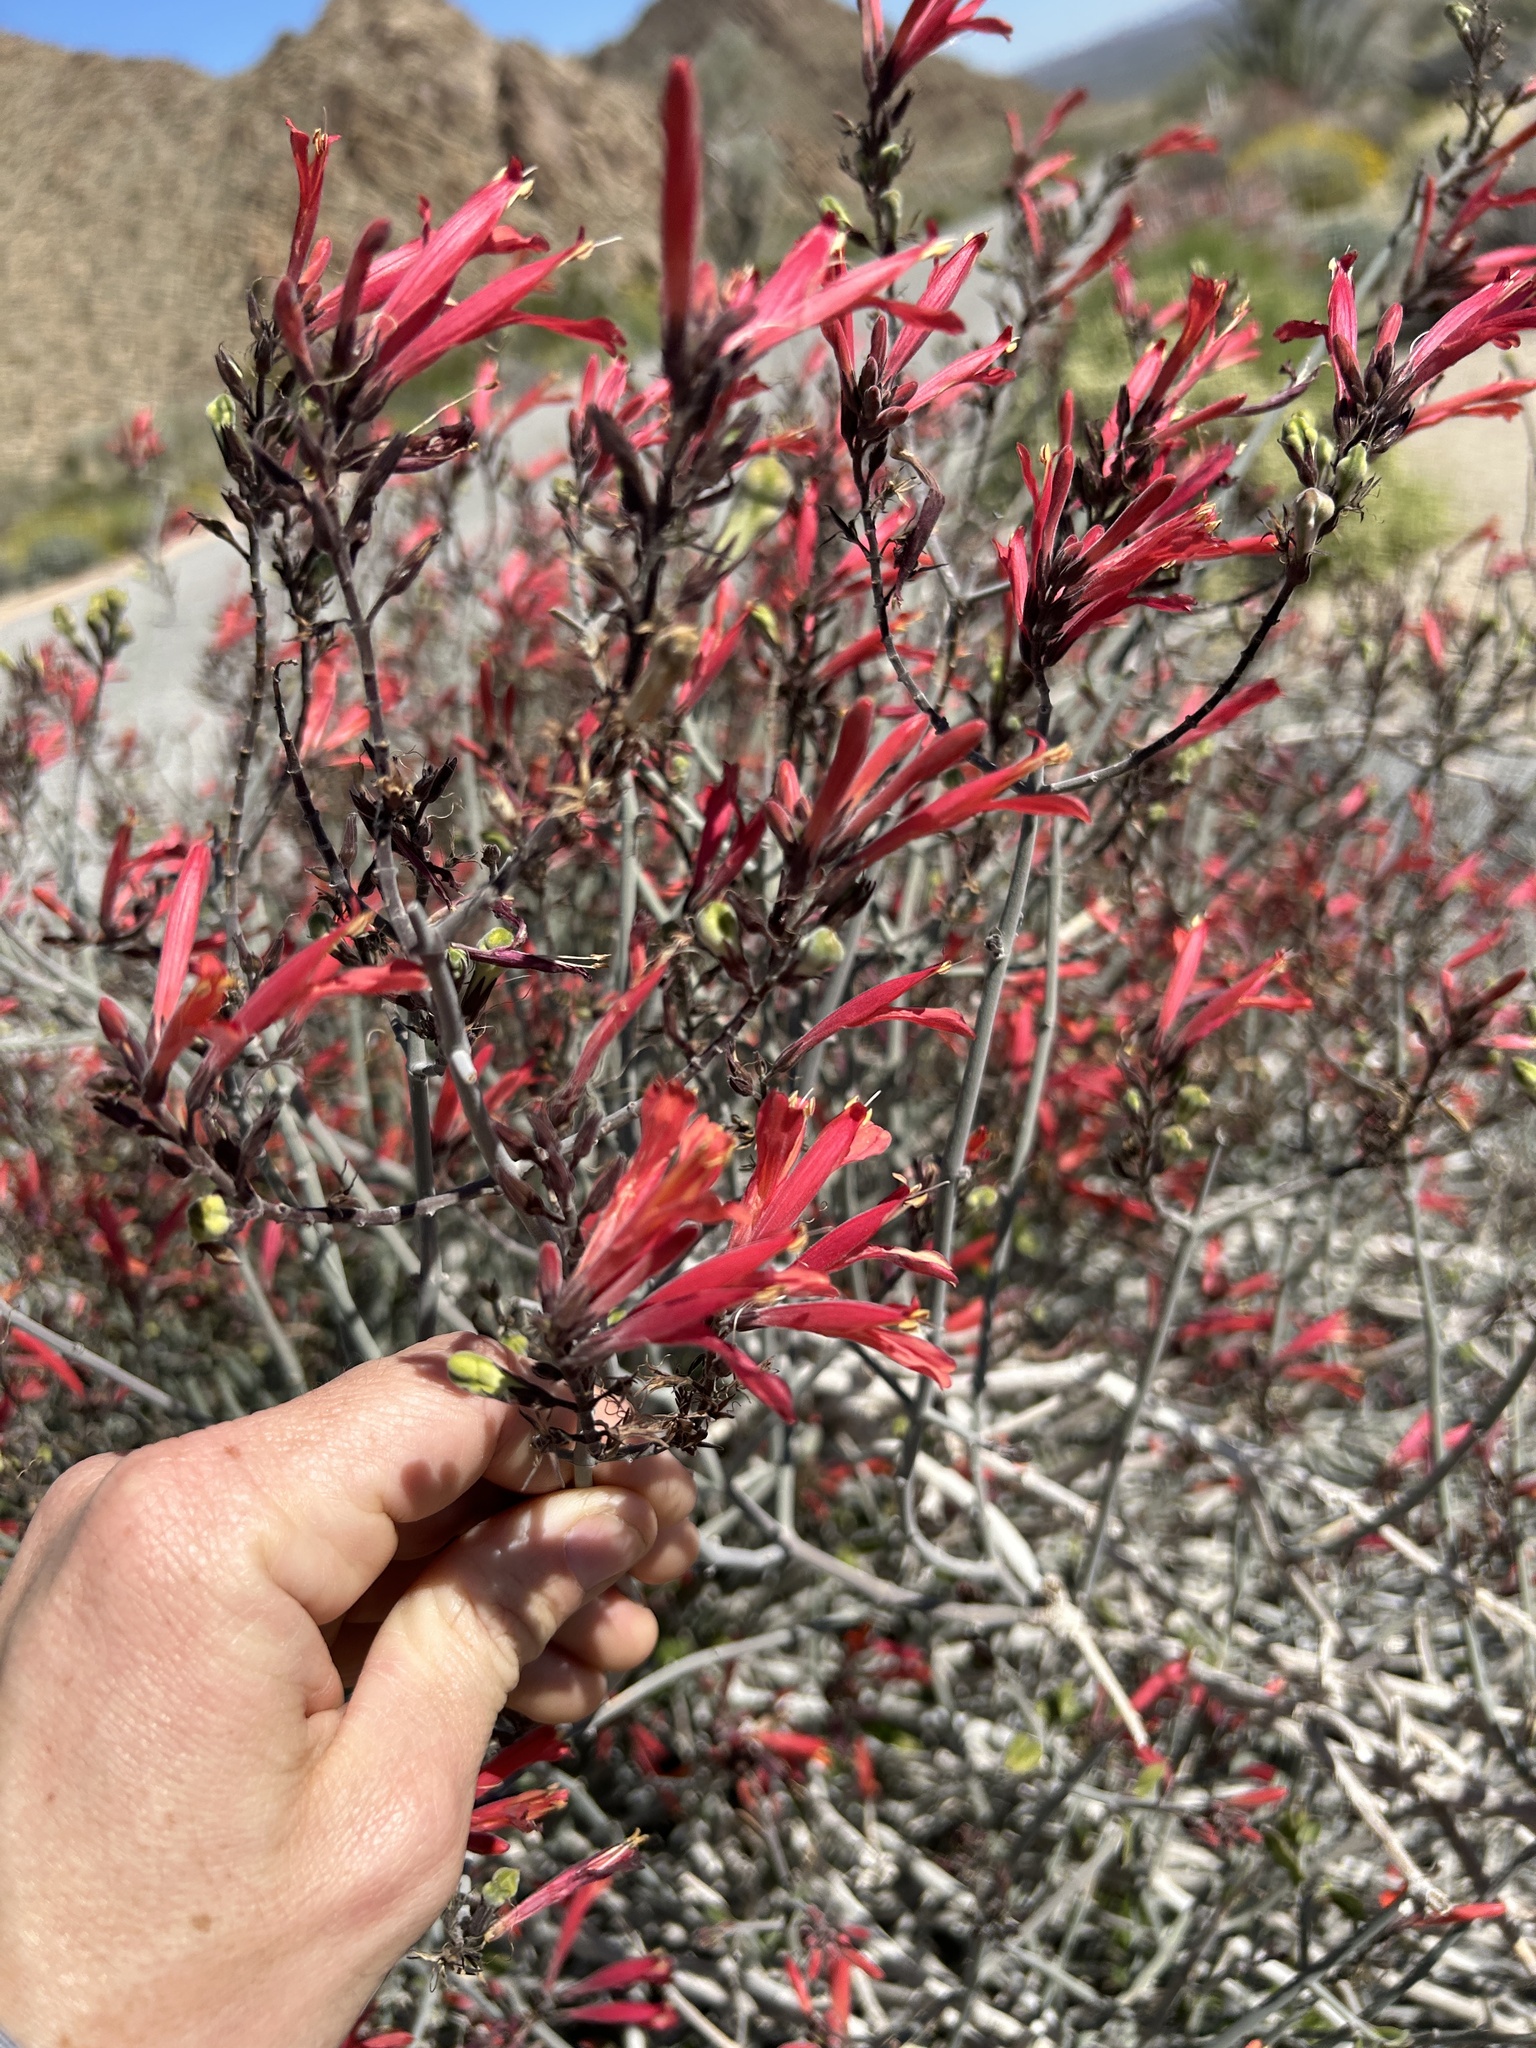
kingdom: Plantae
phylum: Tracheophyta
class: Magnoliopsida
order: Lamiales
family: Acanthaceae
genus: Justicia
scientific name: Justicia californica
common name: Chuparosa-honeysuckle
